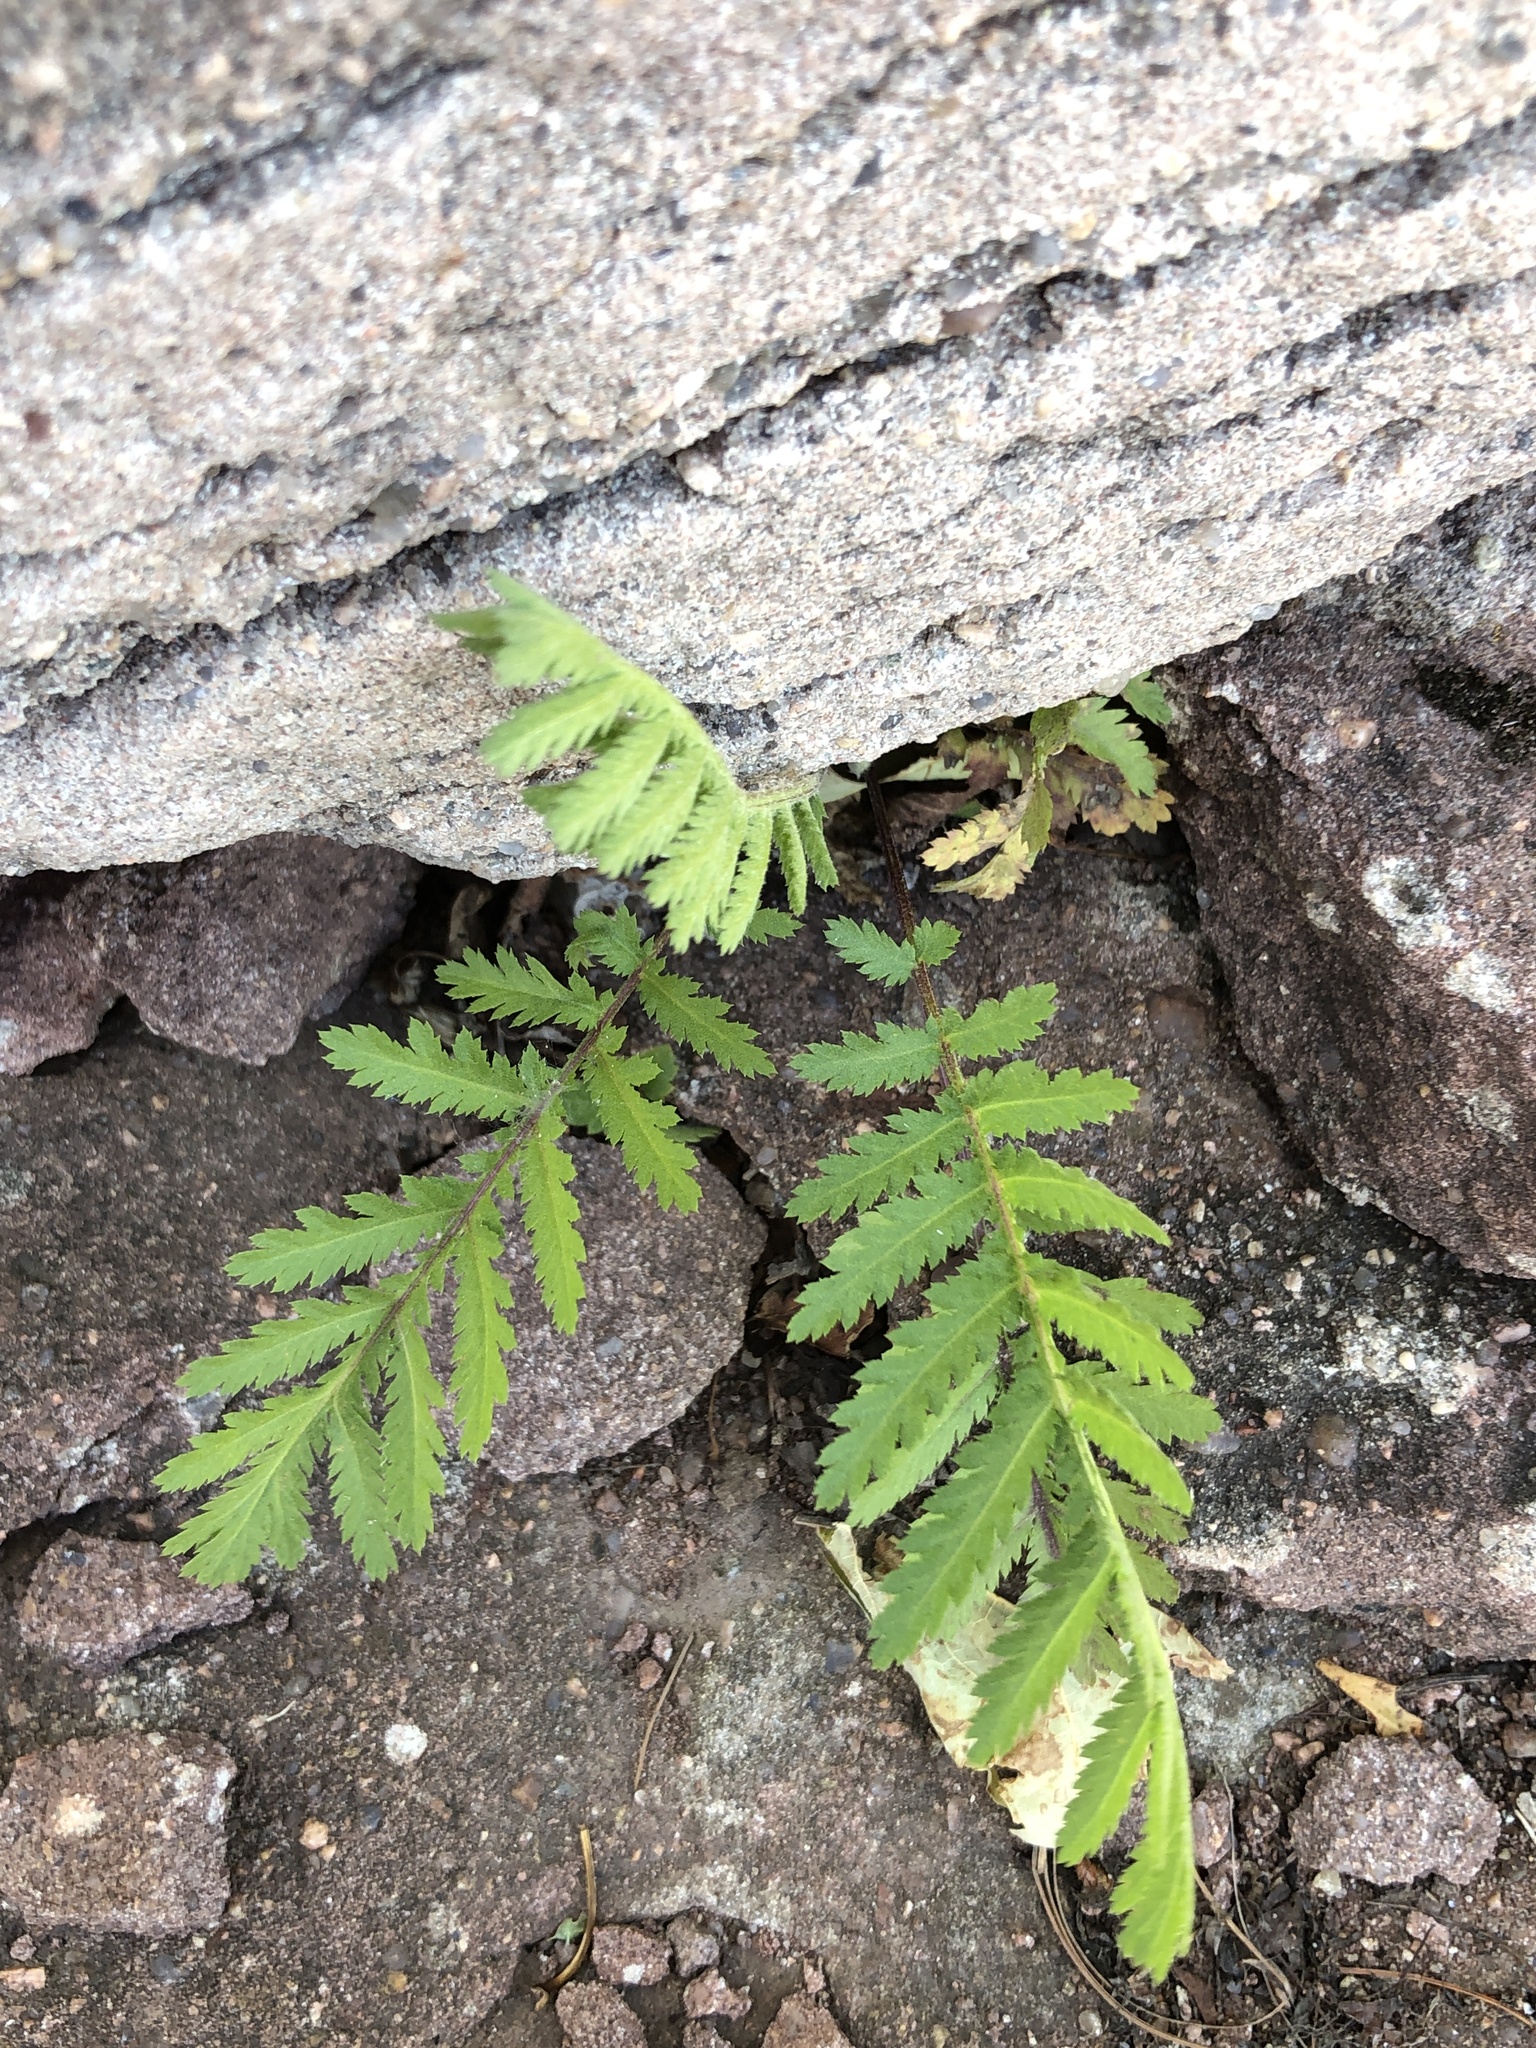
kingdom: Plantae
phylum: Tracheophyta
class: Magnoliopsida
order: Asterales
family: Asteraceae
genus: Tanacetum
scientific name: Tanacetum vulgare
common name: Common tansy
